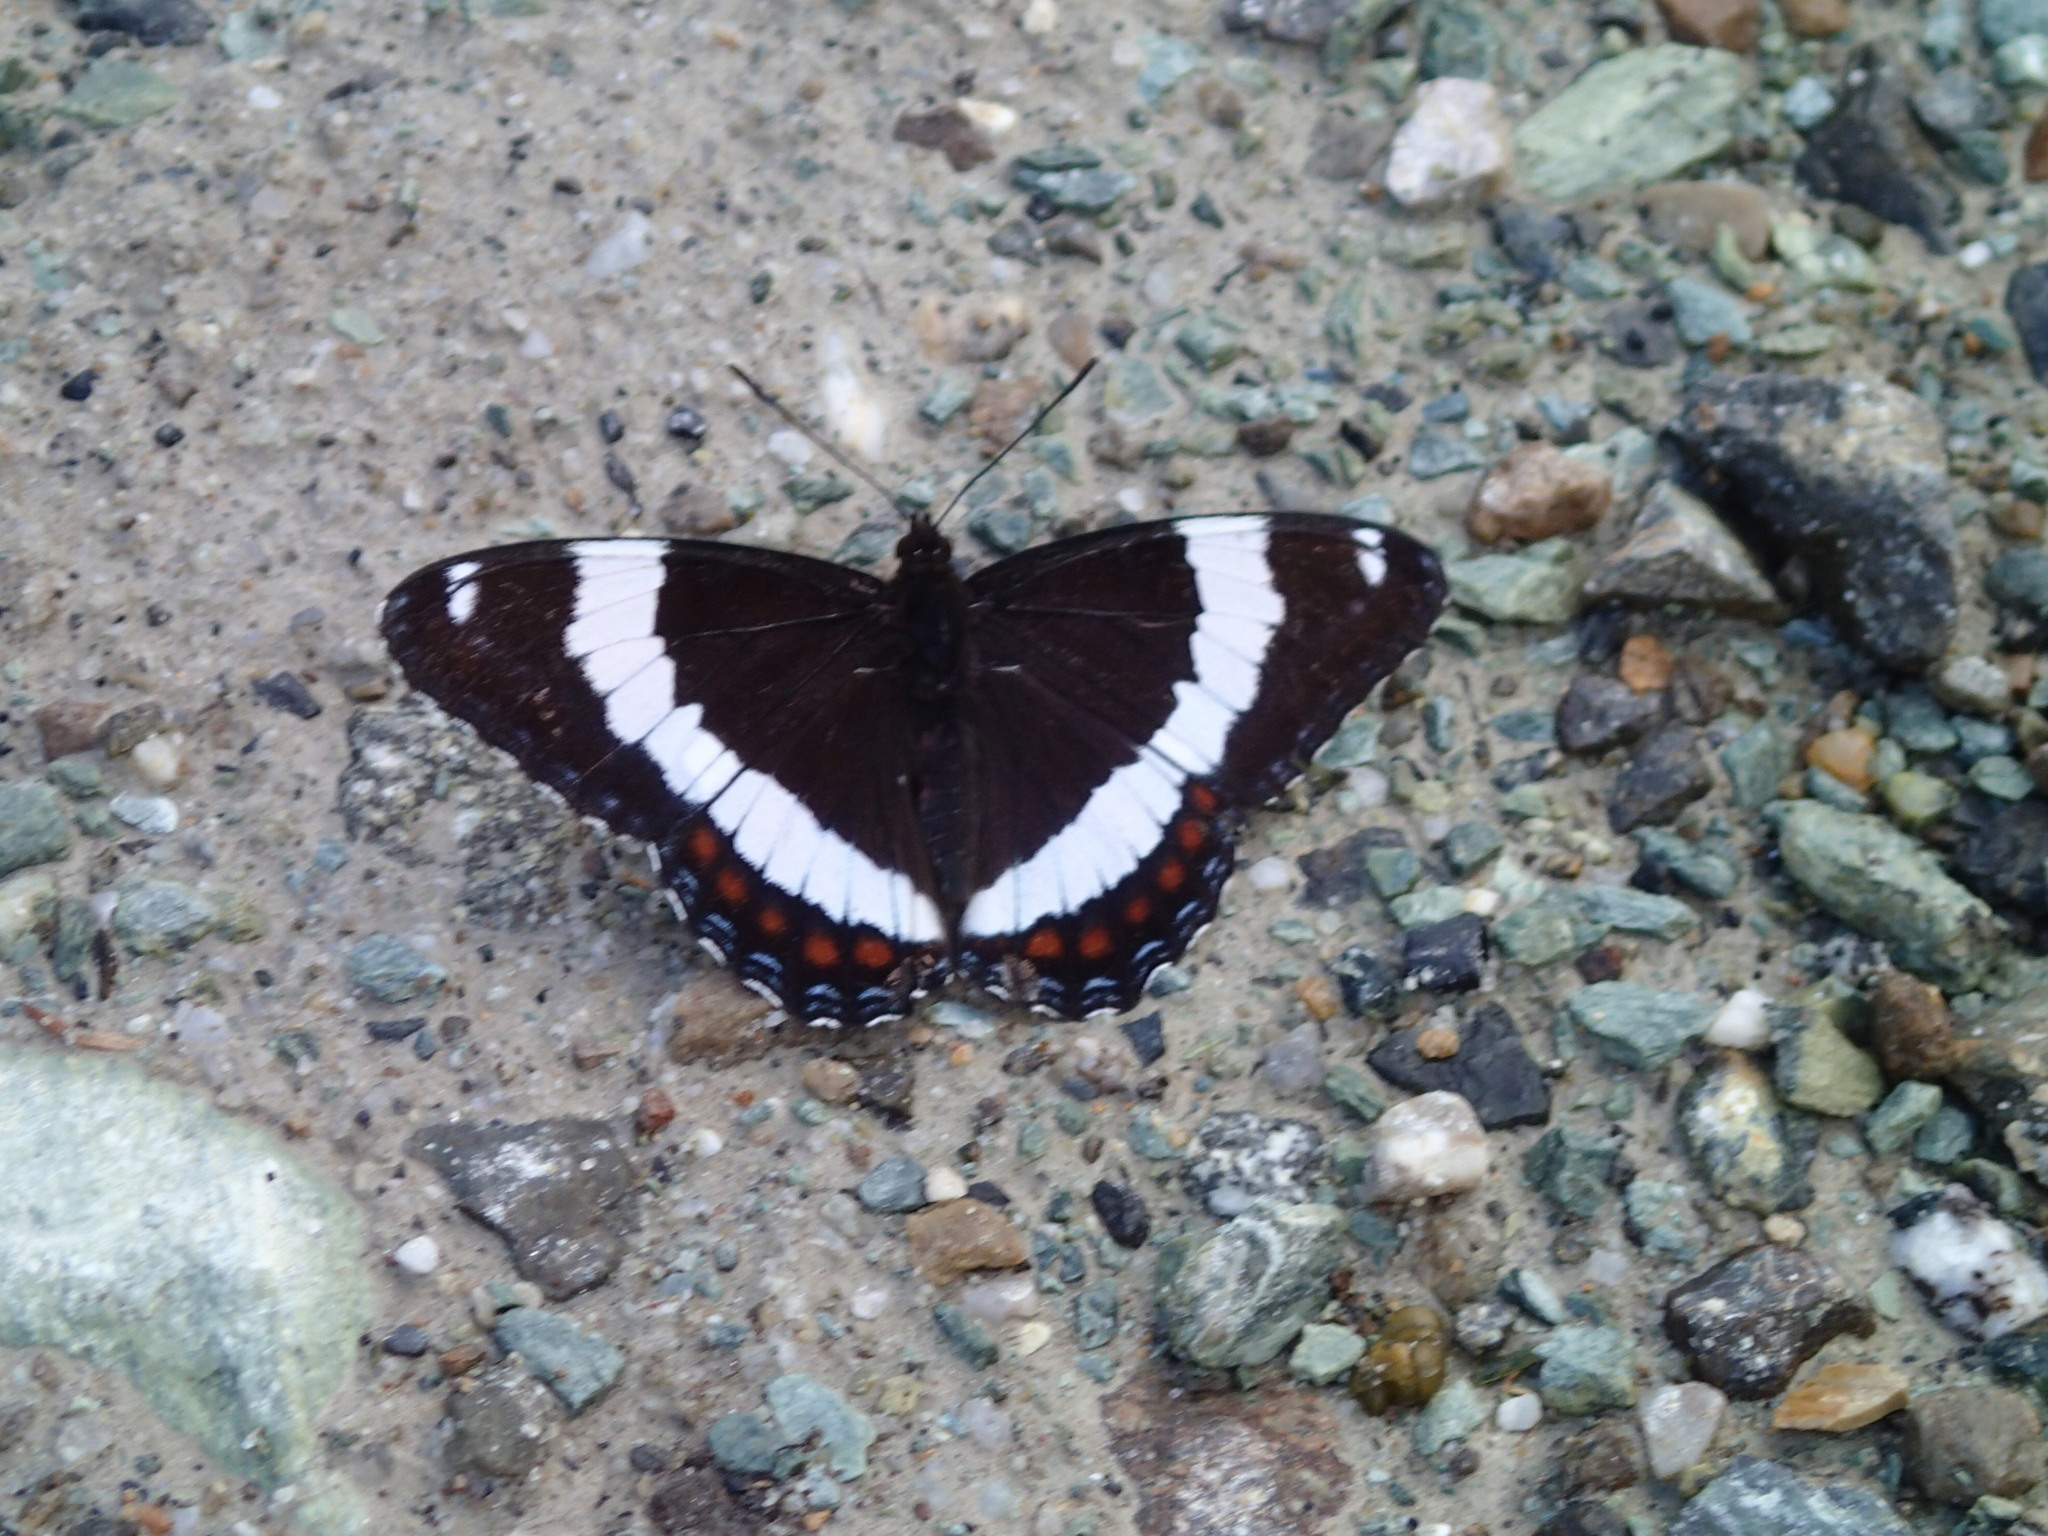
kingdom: Animalia
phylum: Arthropoda
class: Insecta
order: Lepidoptera
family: Nymphalidae
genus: Limenitis
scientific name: Limenitis arthemis
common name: Red-spotted admiral
